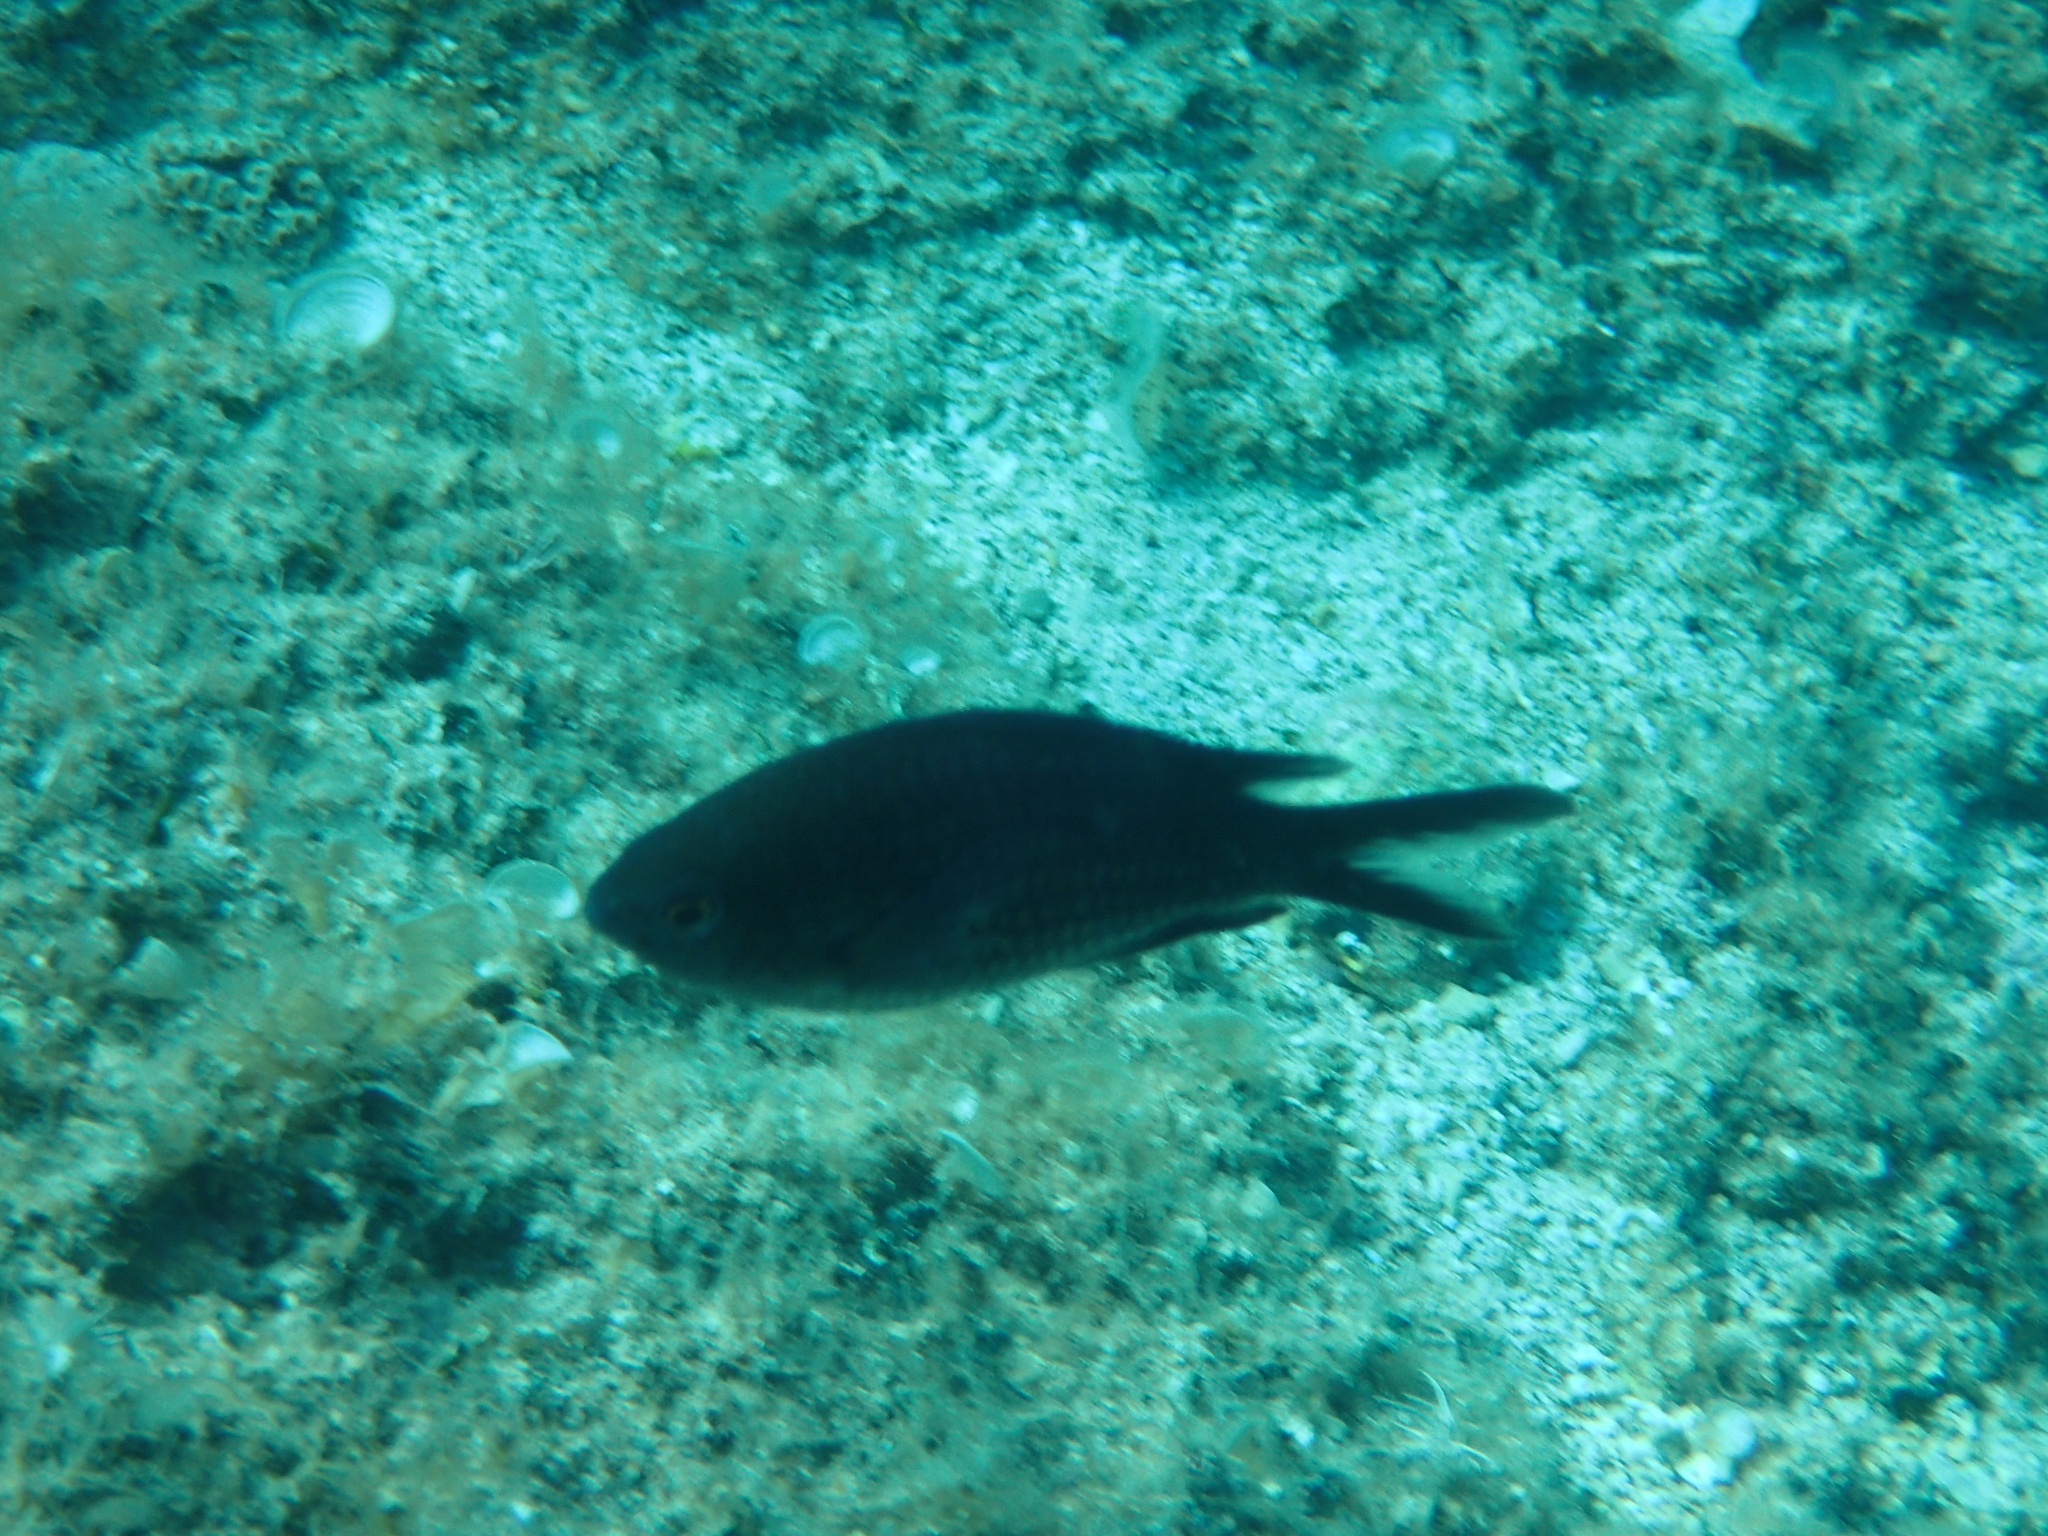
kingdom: Animalia
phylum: Chordata
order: Perciformes
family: Pomacentridae
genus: Chromis
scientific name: Chromis chromis
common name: Damselfish
